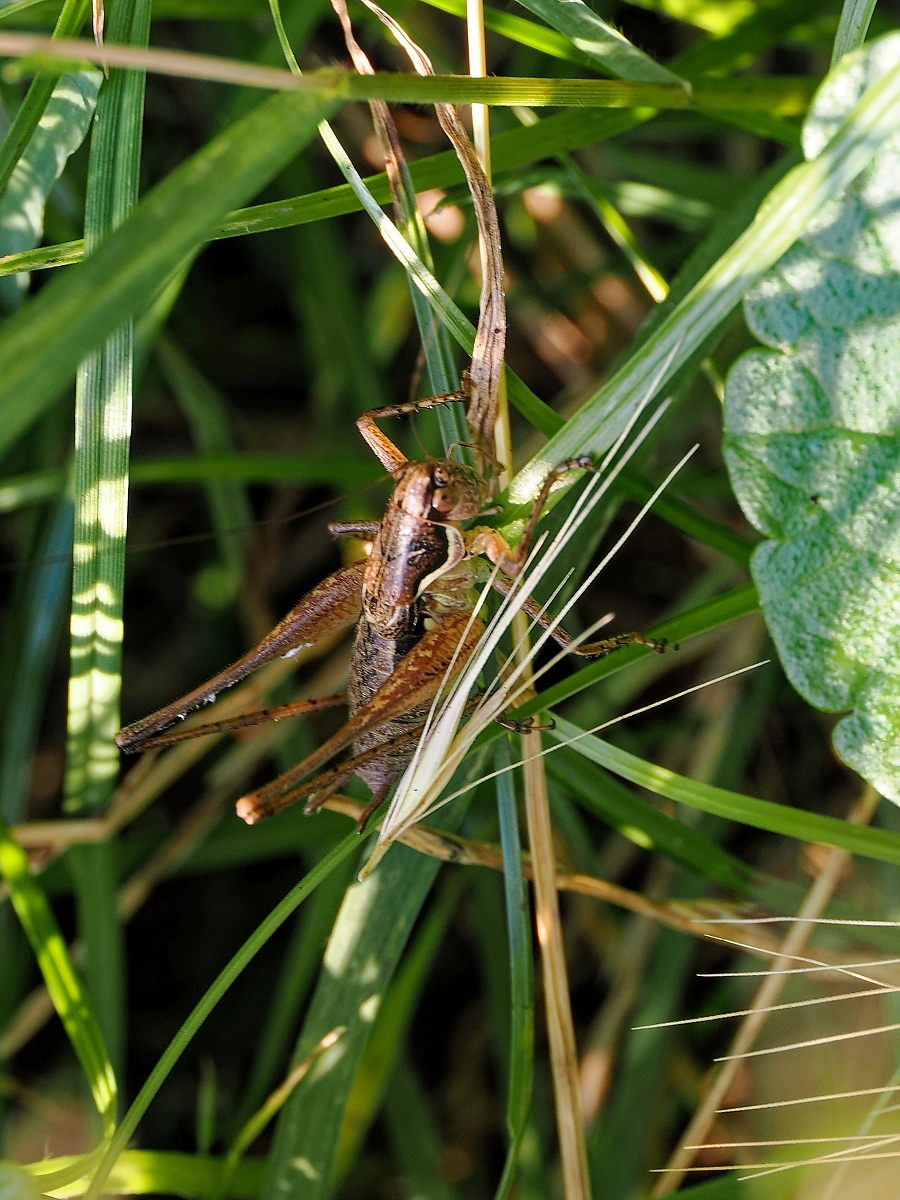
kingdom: Animalia
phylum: Arthropoda
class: Insecta
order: Orthoptera
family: Tettigoniidae
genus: Pachytrachis
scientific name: Pachytrachis gracilis
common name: Graceful bush-cricket
